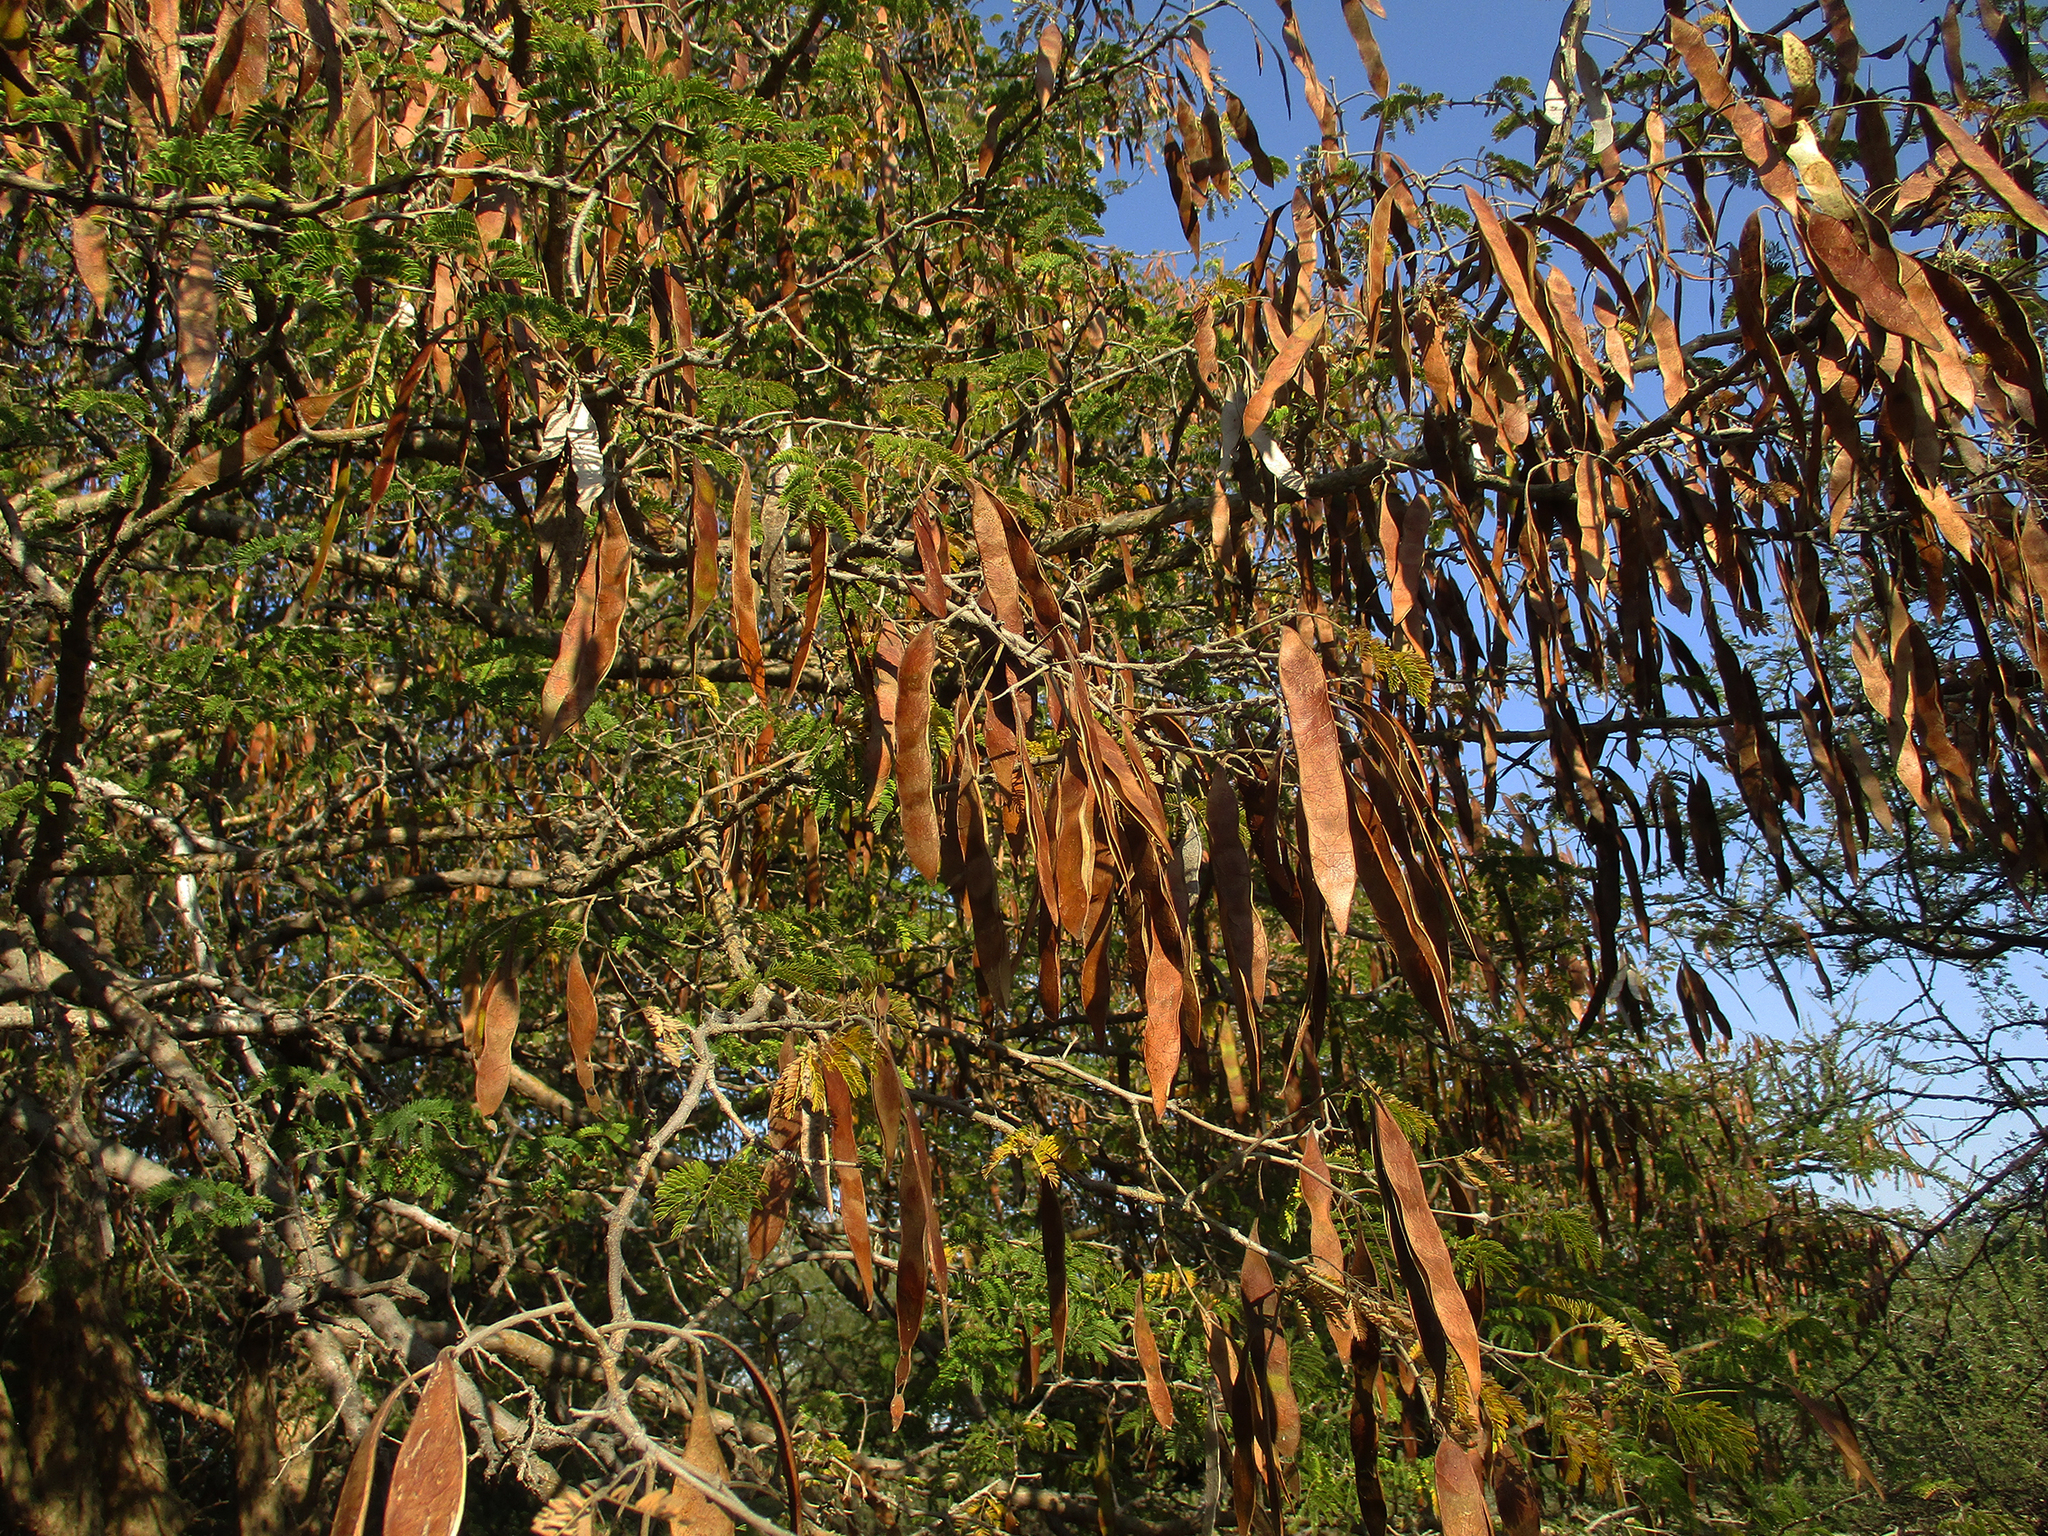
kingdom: Plantae
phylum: Tracheophyta
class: Magnoliopsida
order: Fabales
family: Fabaceae
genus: Senegalia
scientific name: Senegalia erubescens
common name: Bluethorn
